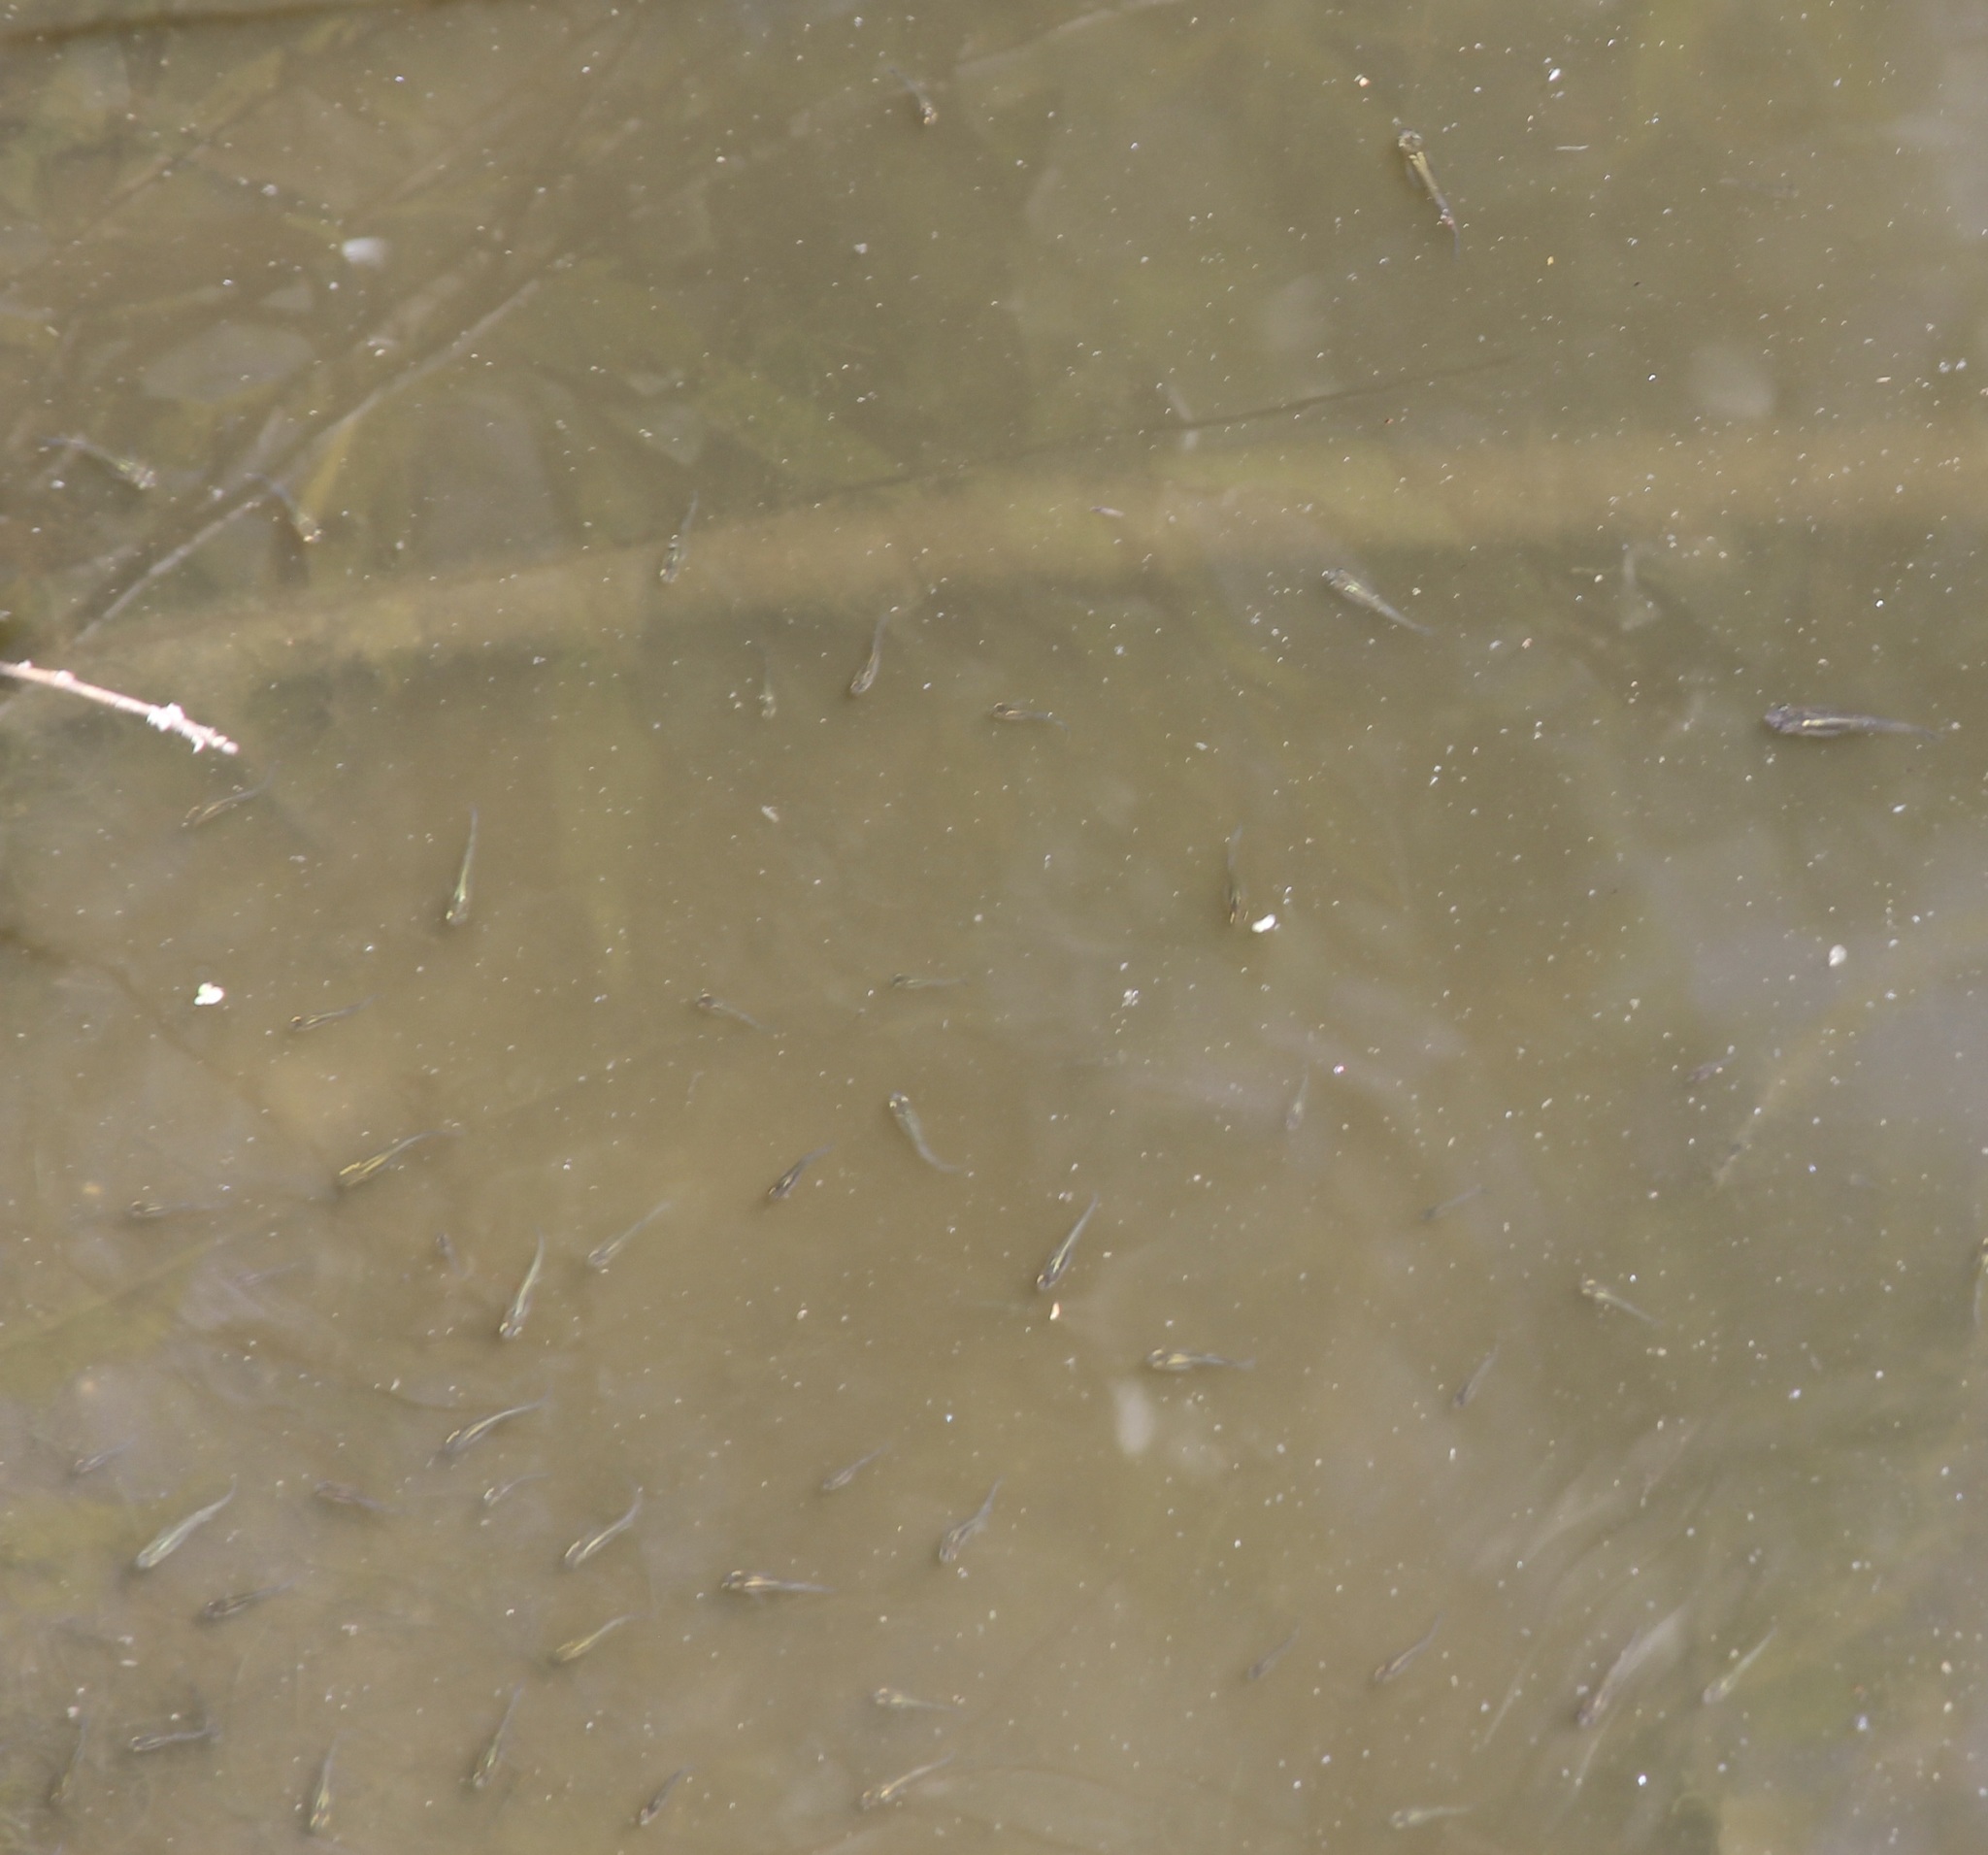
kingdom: Animalia
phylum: Chordata
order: Cyprinodontiformes
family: Poeciliidae
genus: Gambusia
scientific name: Gambusia affinis
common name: Mosquitofish
